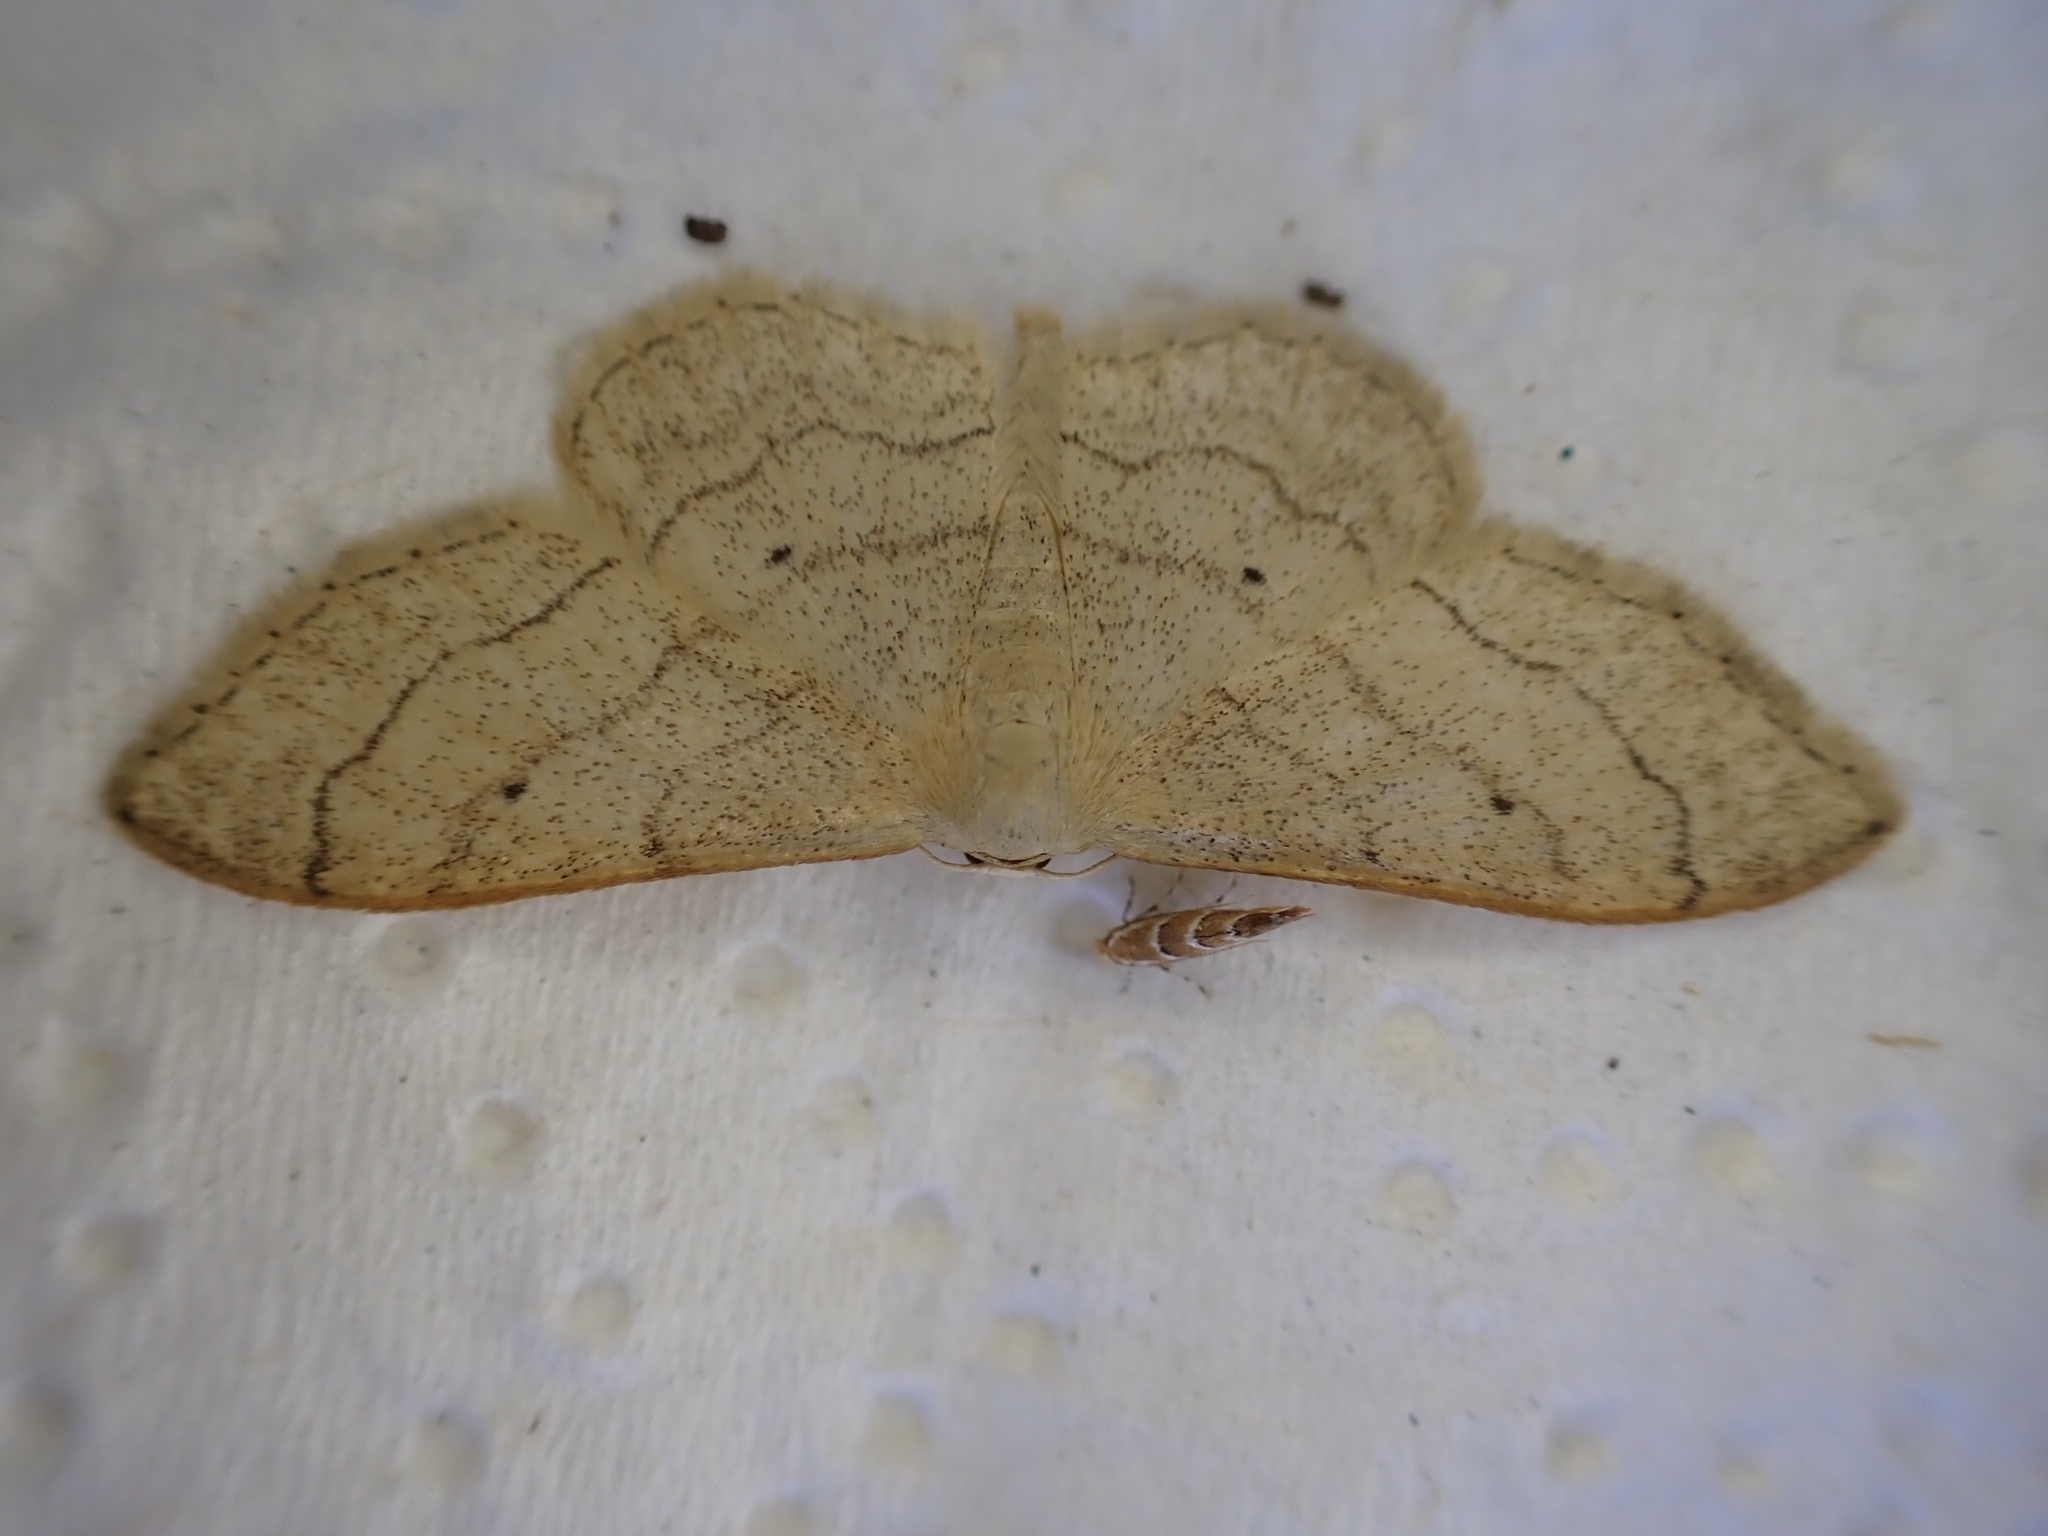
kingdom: Animalia
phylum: Arthropoda
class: Insecta
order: Lepidoptera
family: Geometridae
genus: Idaea
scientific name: Idaea aversata
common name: Riband wave
